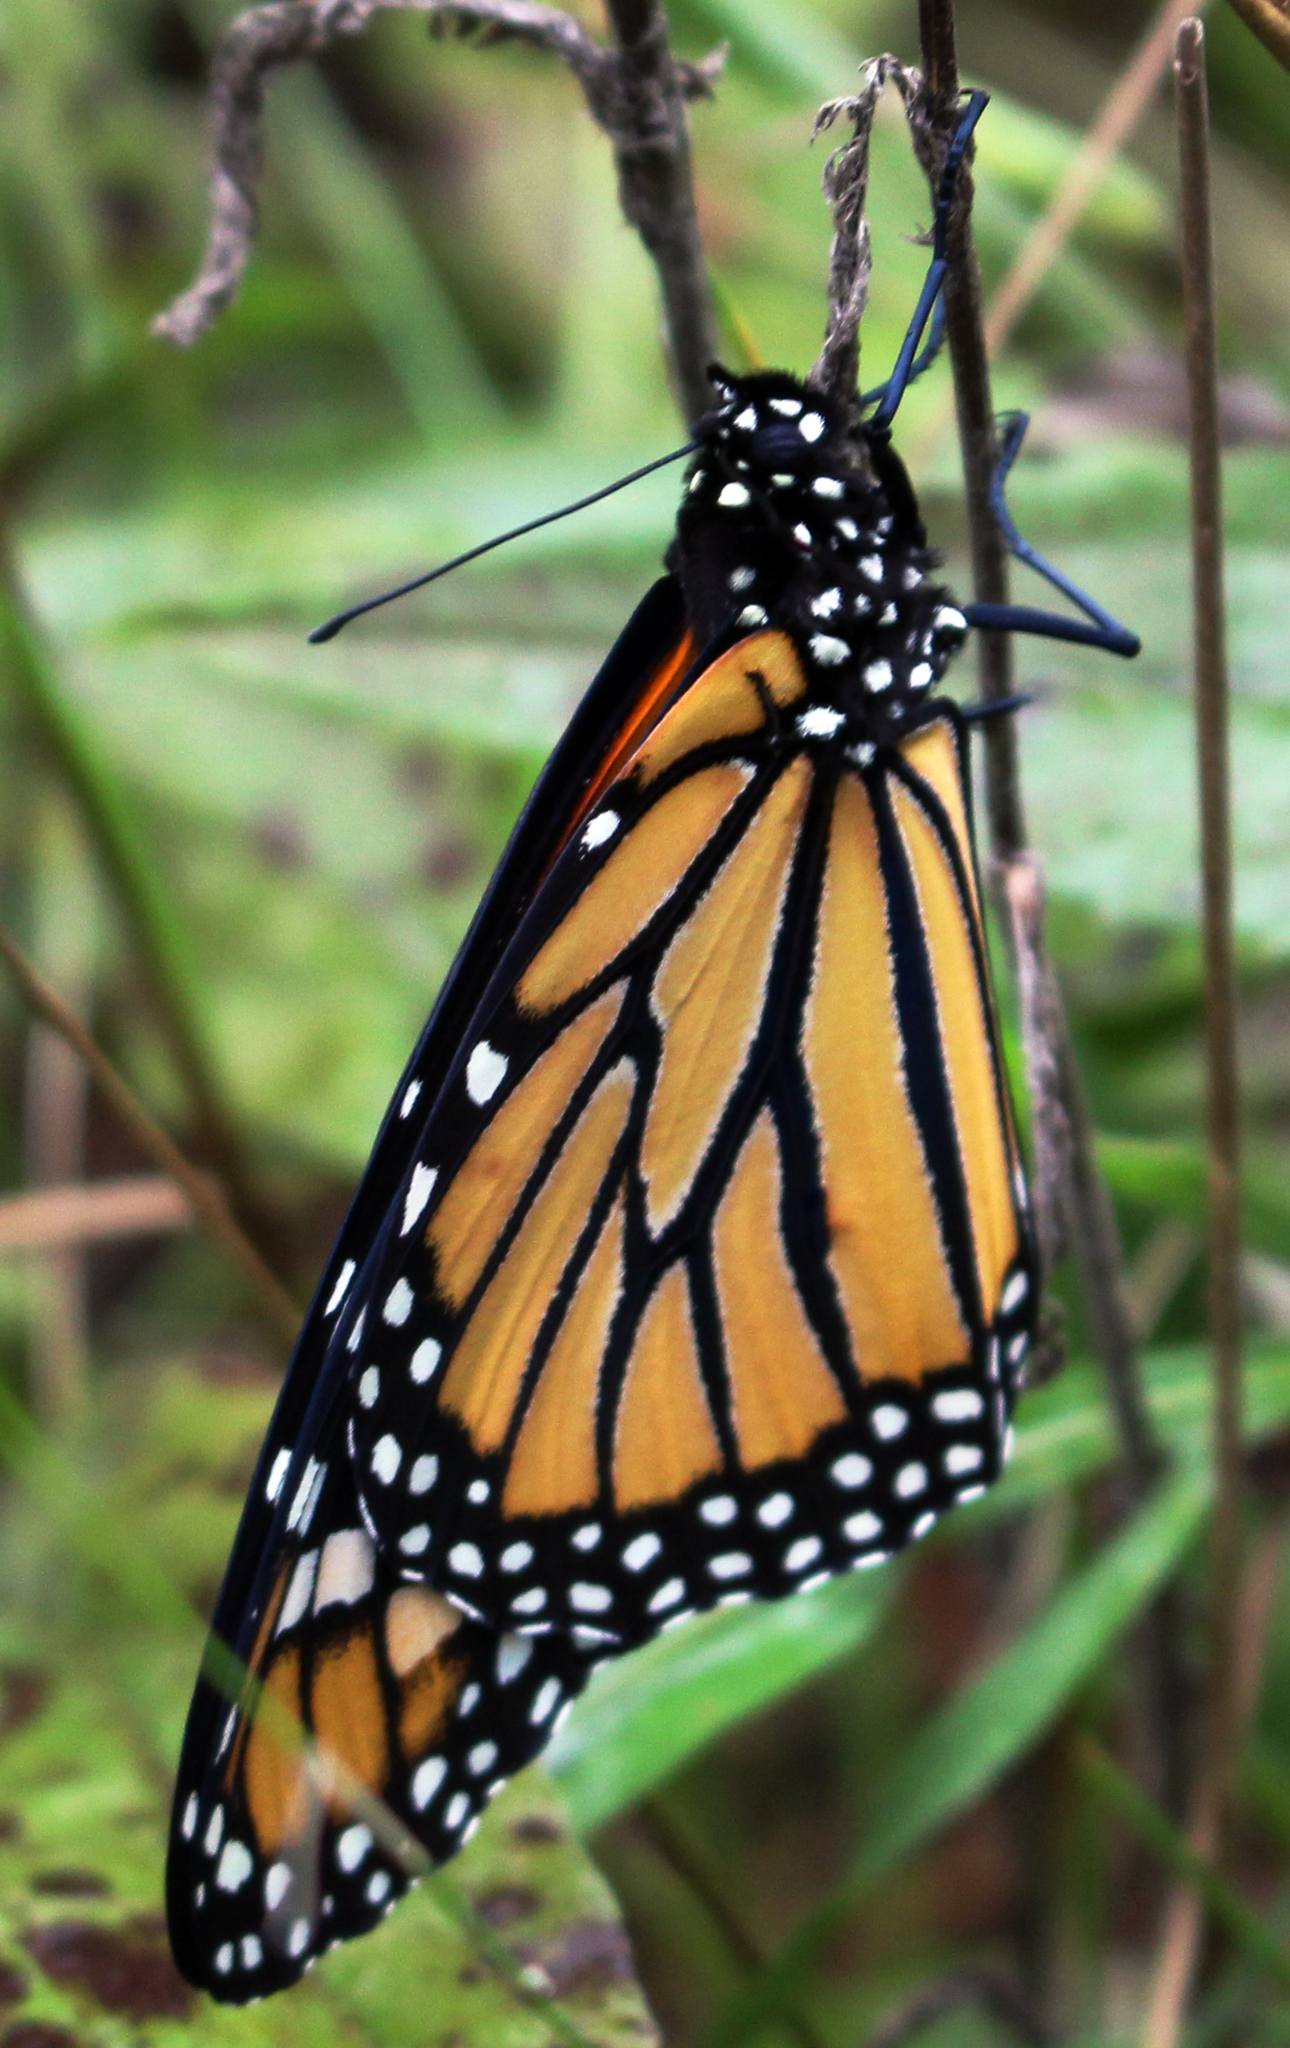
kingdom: Animalia
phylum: Arthropoda
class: Insecta
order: Lepidoptera
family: Nymphalidae
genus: Danaus
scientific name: Danaus plexippus
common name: Monarch
